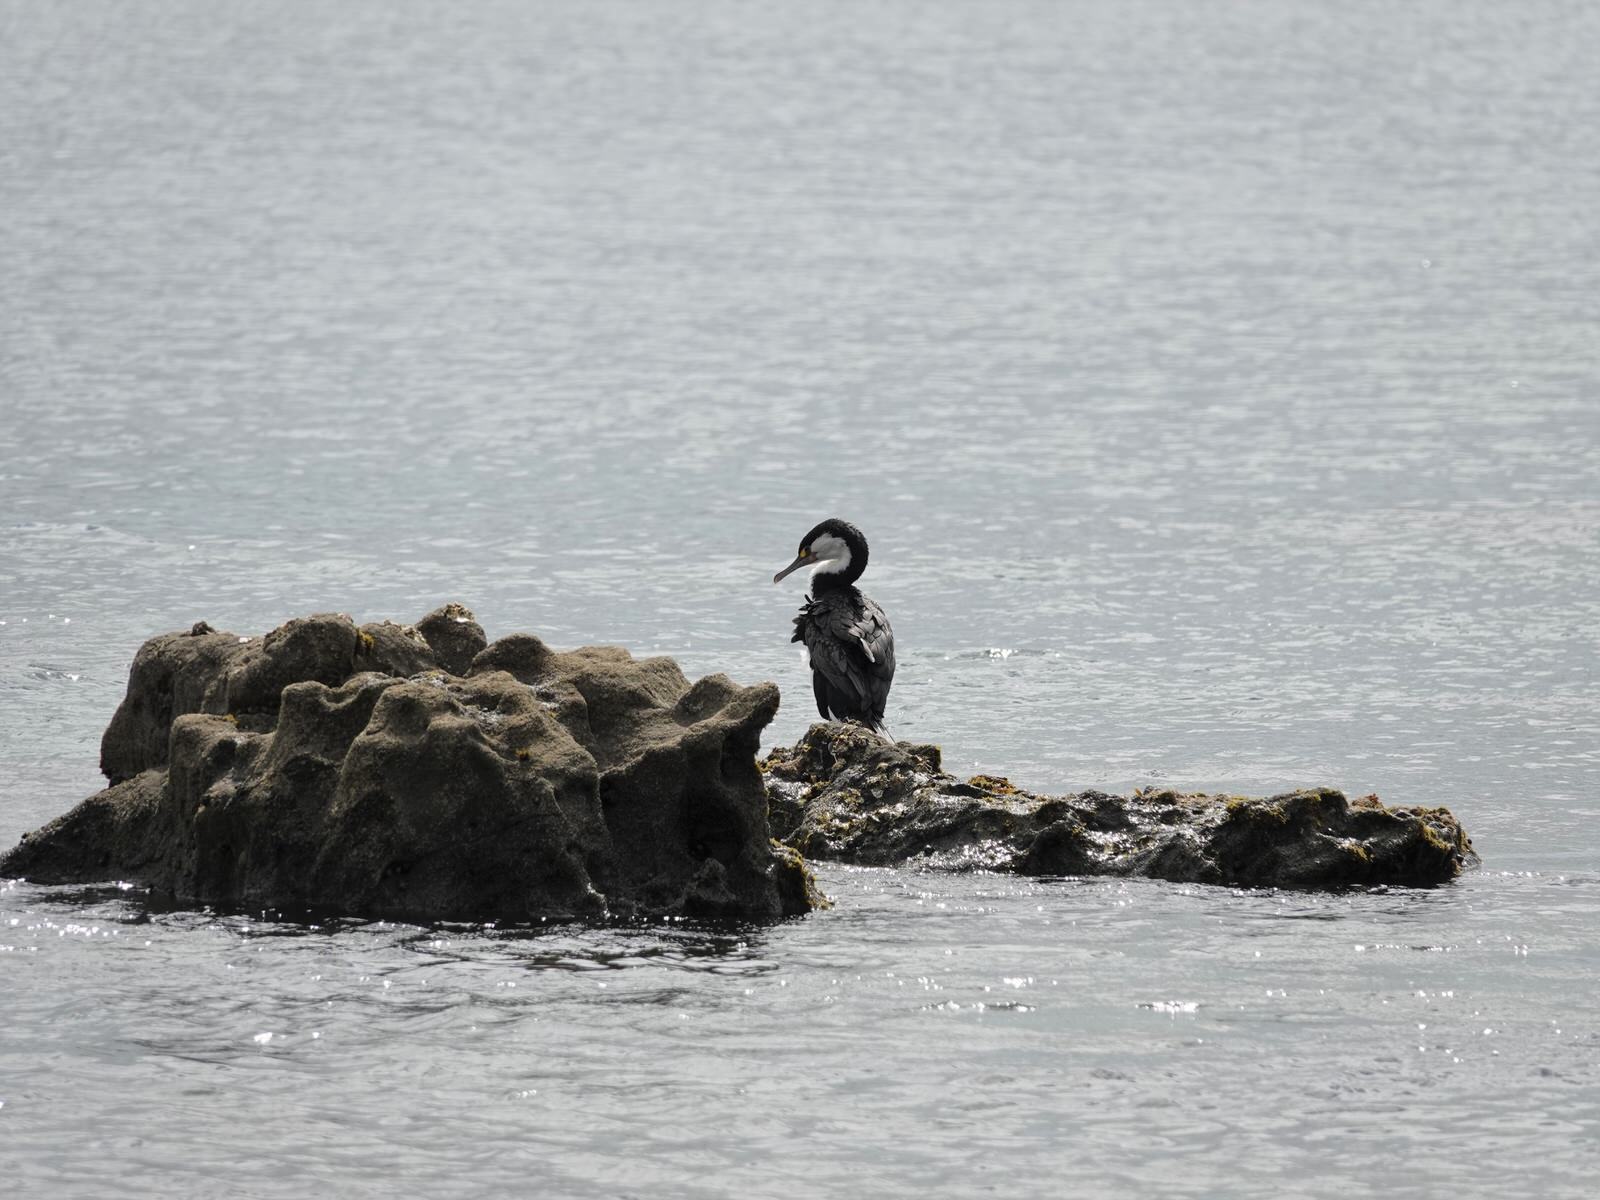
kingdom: Animalia
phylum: Chordata
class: Aves
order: Suliformes
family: Phalacrocoracidae
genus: Phalacrocorax
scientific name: Phalacrocorax varius
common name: Pied cormorant
